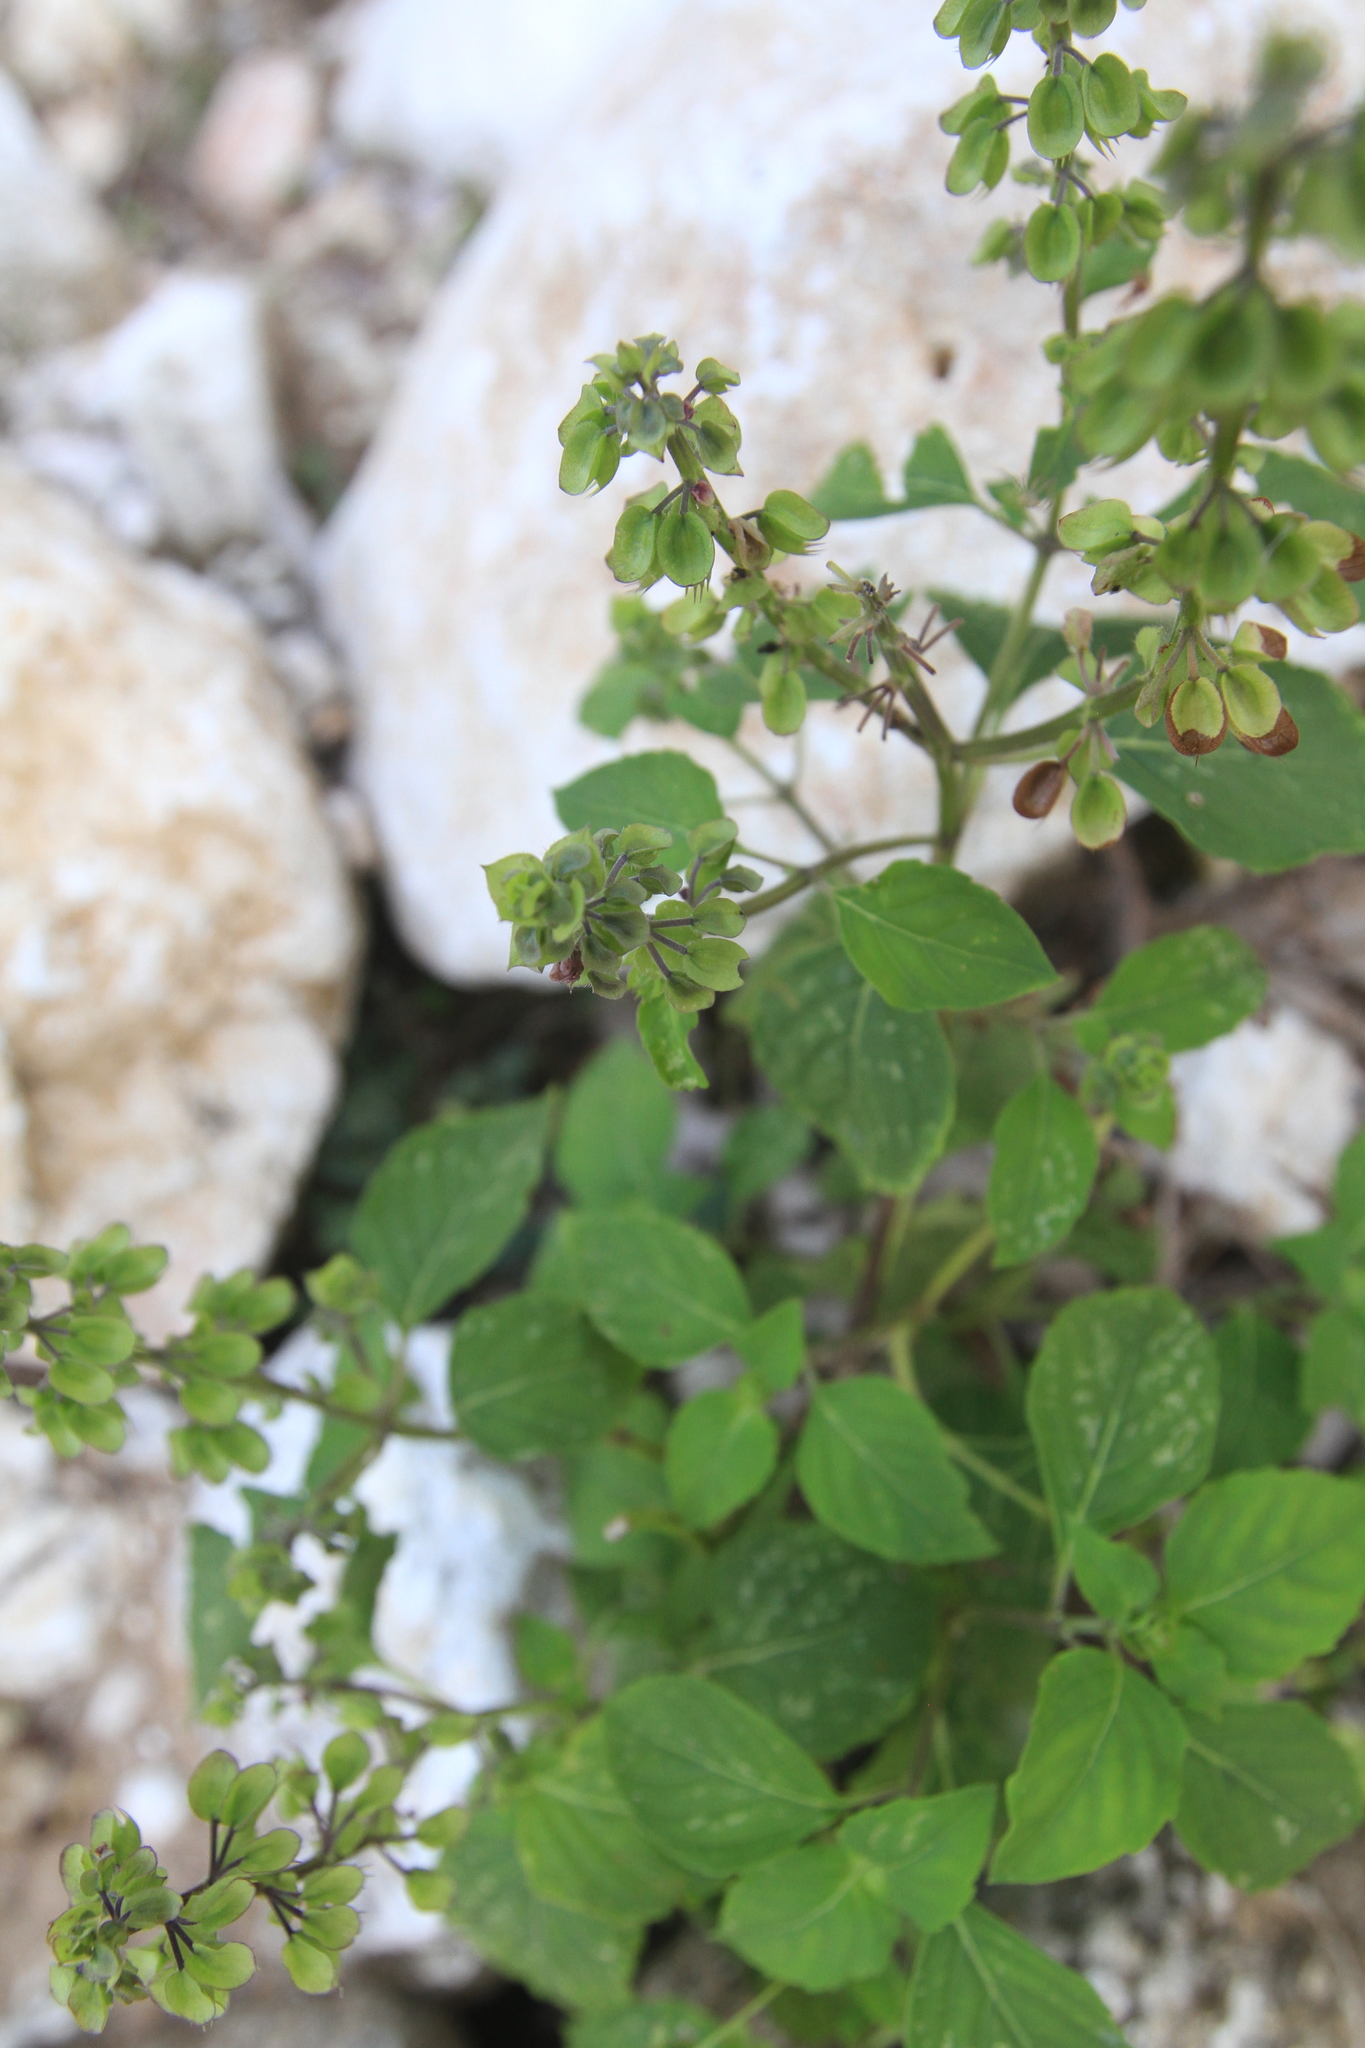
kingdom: Plantae
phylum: Tracheophyta
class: Magnoliopsida
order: Lamiales
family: Lamiaceae
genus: Ocimum
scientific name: Ocimum campechianum
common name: Mosquito basil
